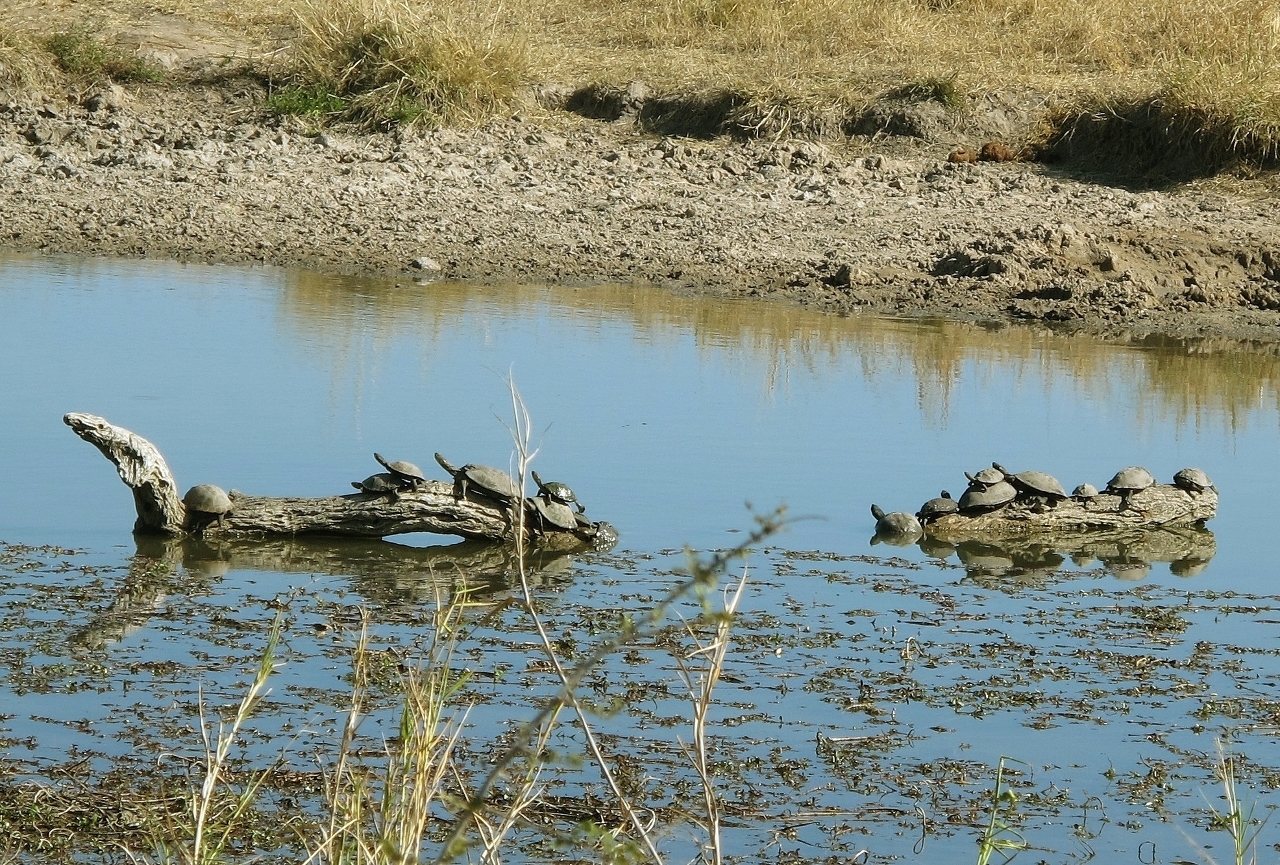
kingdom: Animalia
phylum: Chordata
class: Testudines
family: Pelomedusidae
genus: Pelusios
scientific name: Pelusios sinuatus
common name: Serrated hinged terrapin
